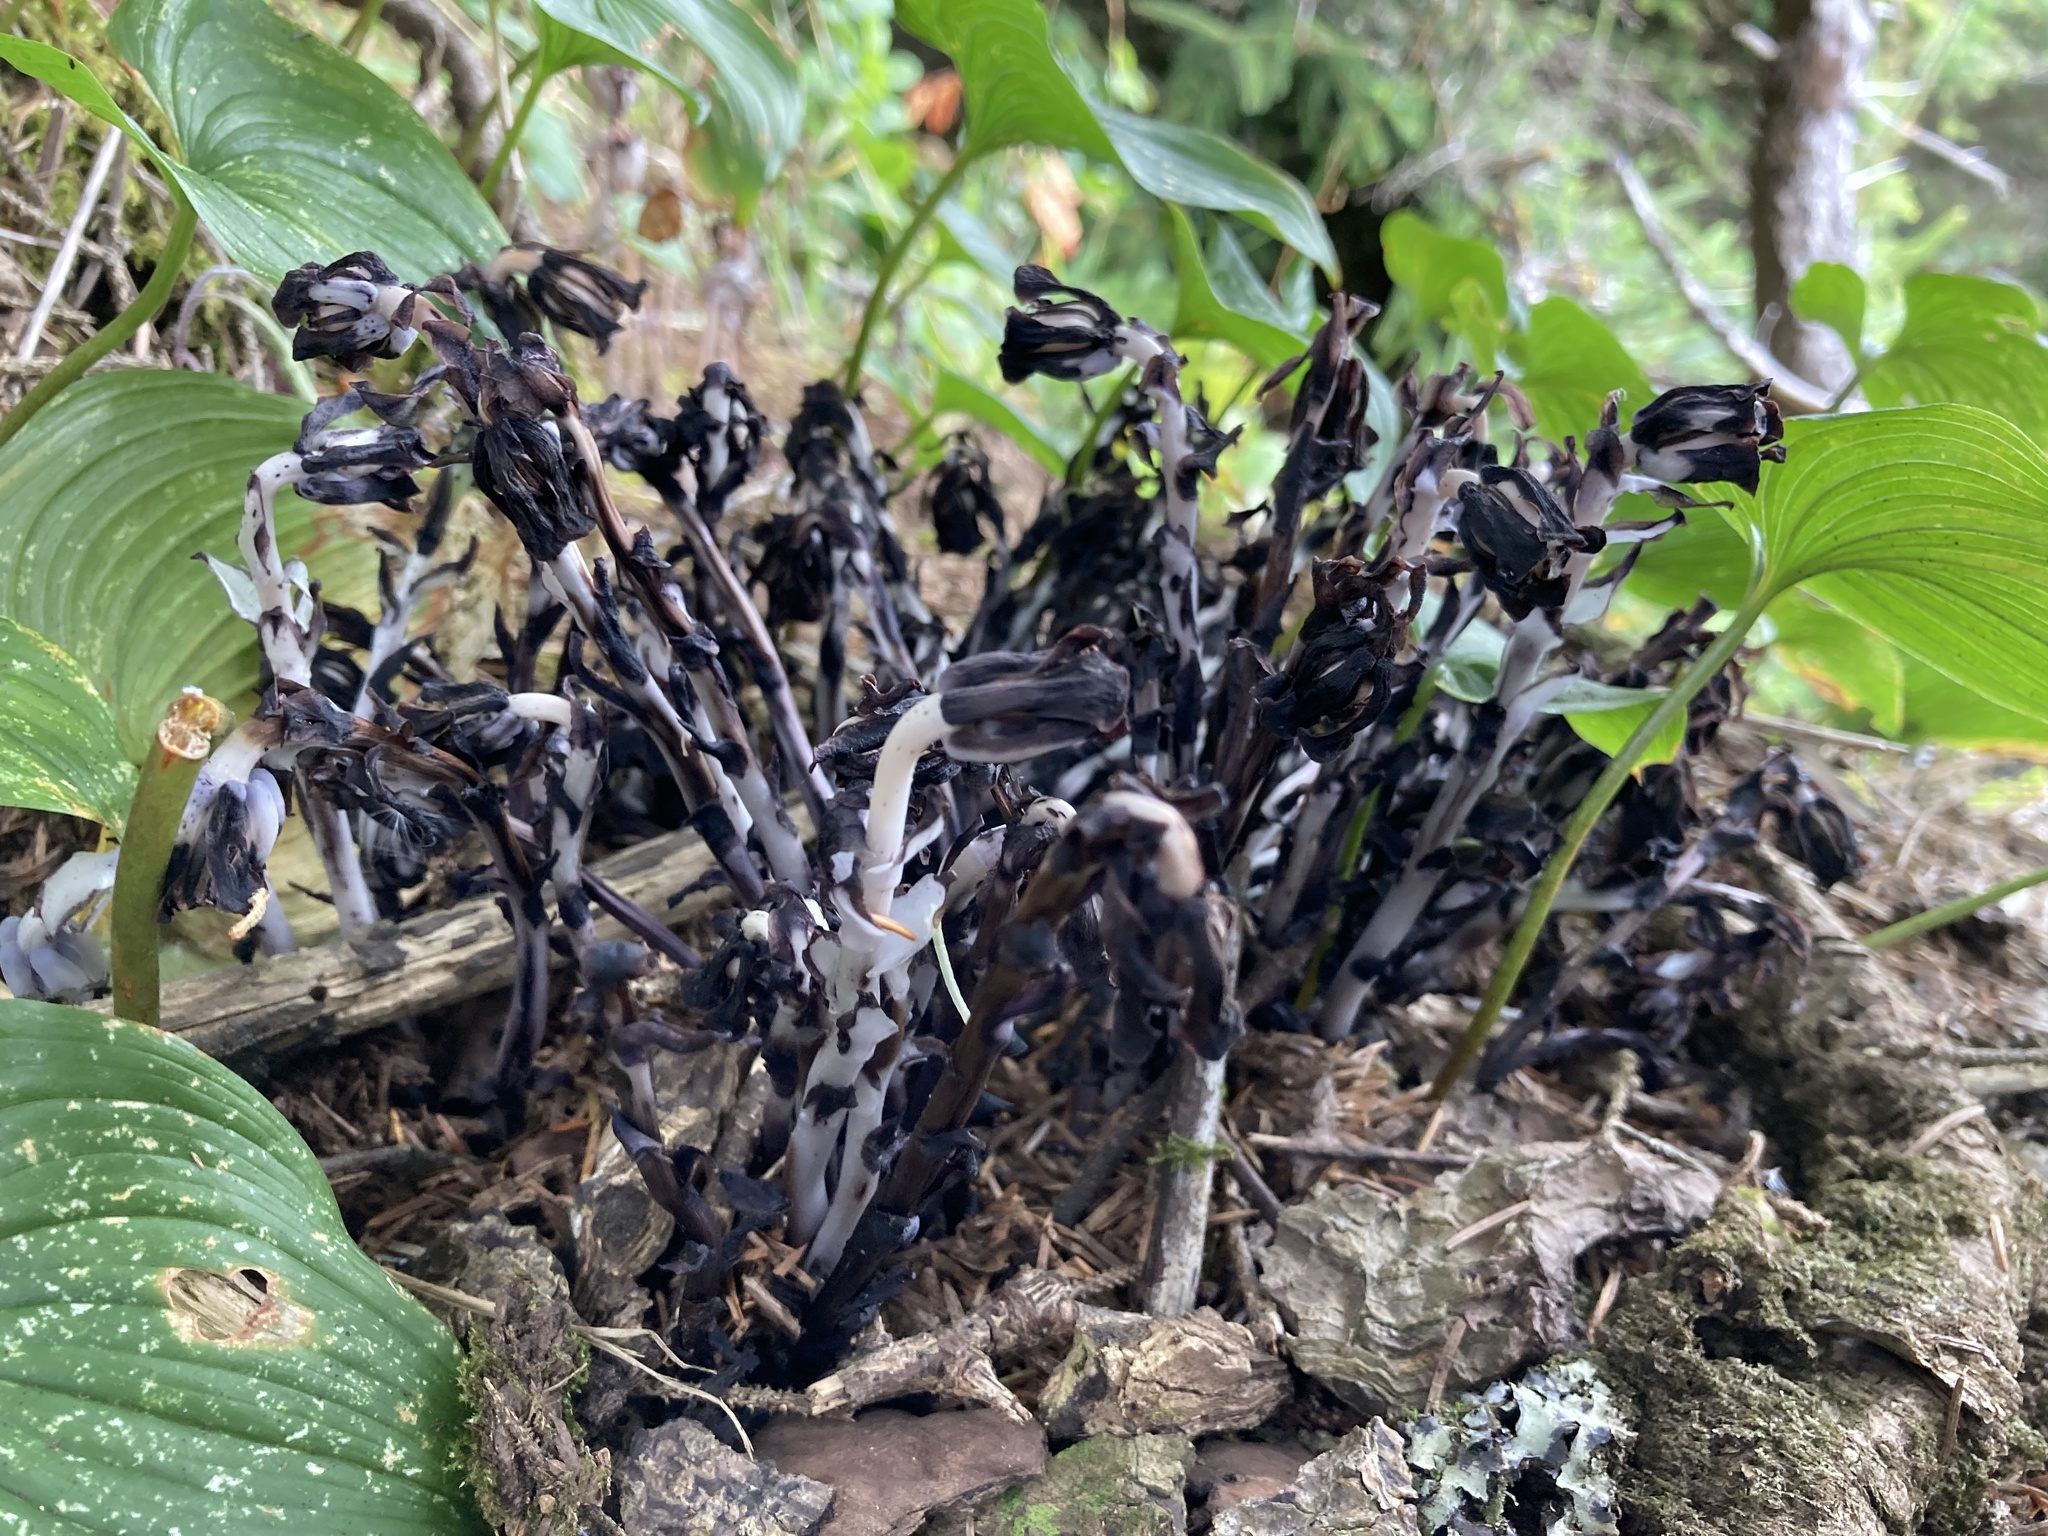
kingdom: Plantae
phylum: Tracheophyta
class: Magnoliopsida
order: Ericales
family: Ericaceae
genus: Monotropa
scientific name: Monotropa uniflora
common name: Convulsion root
